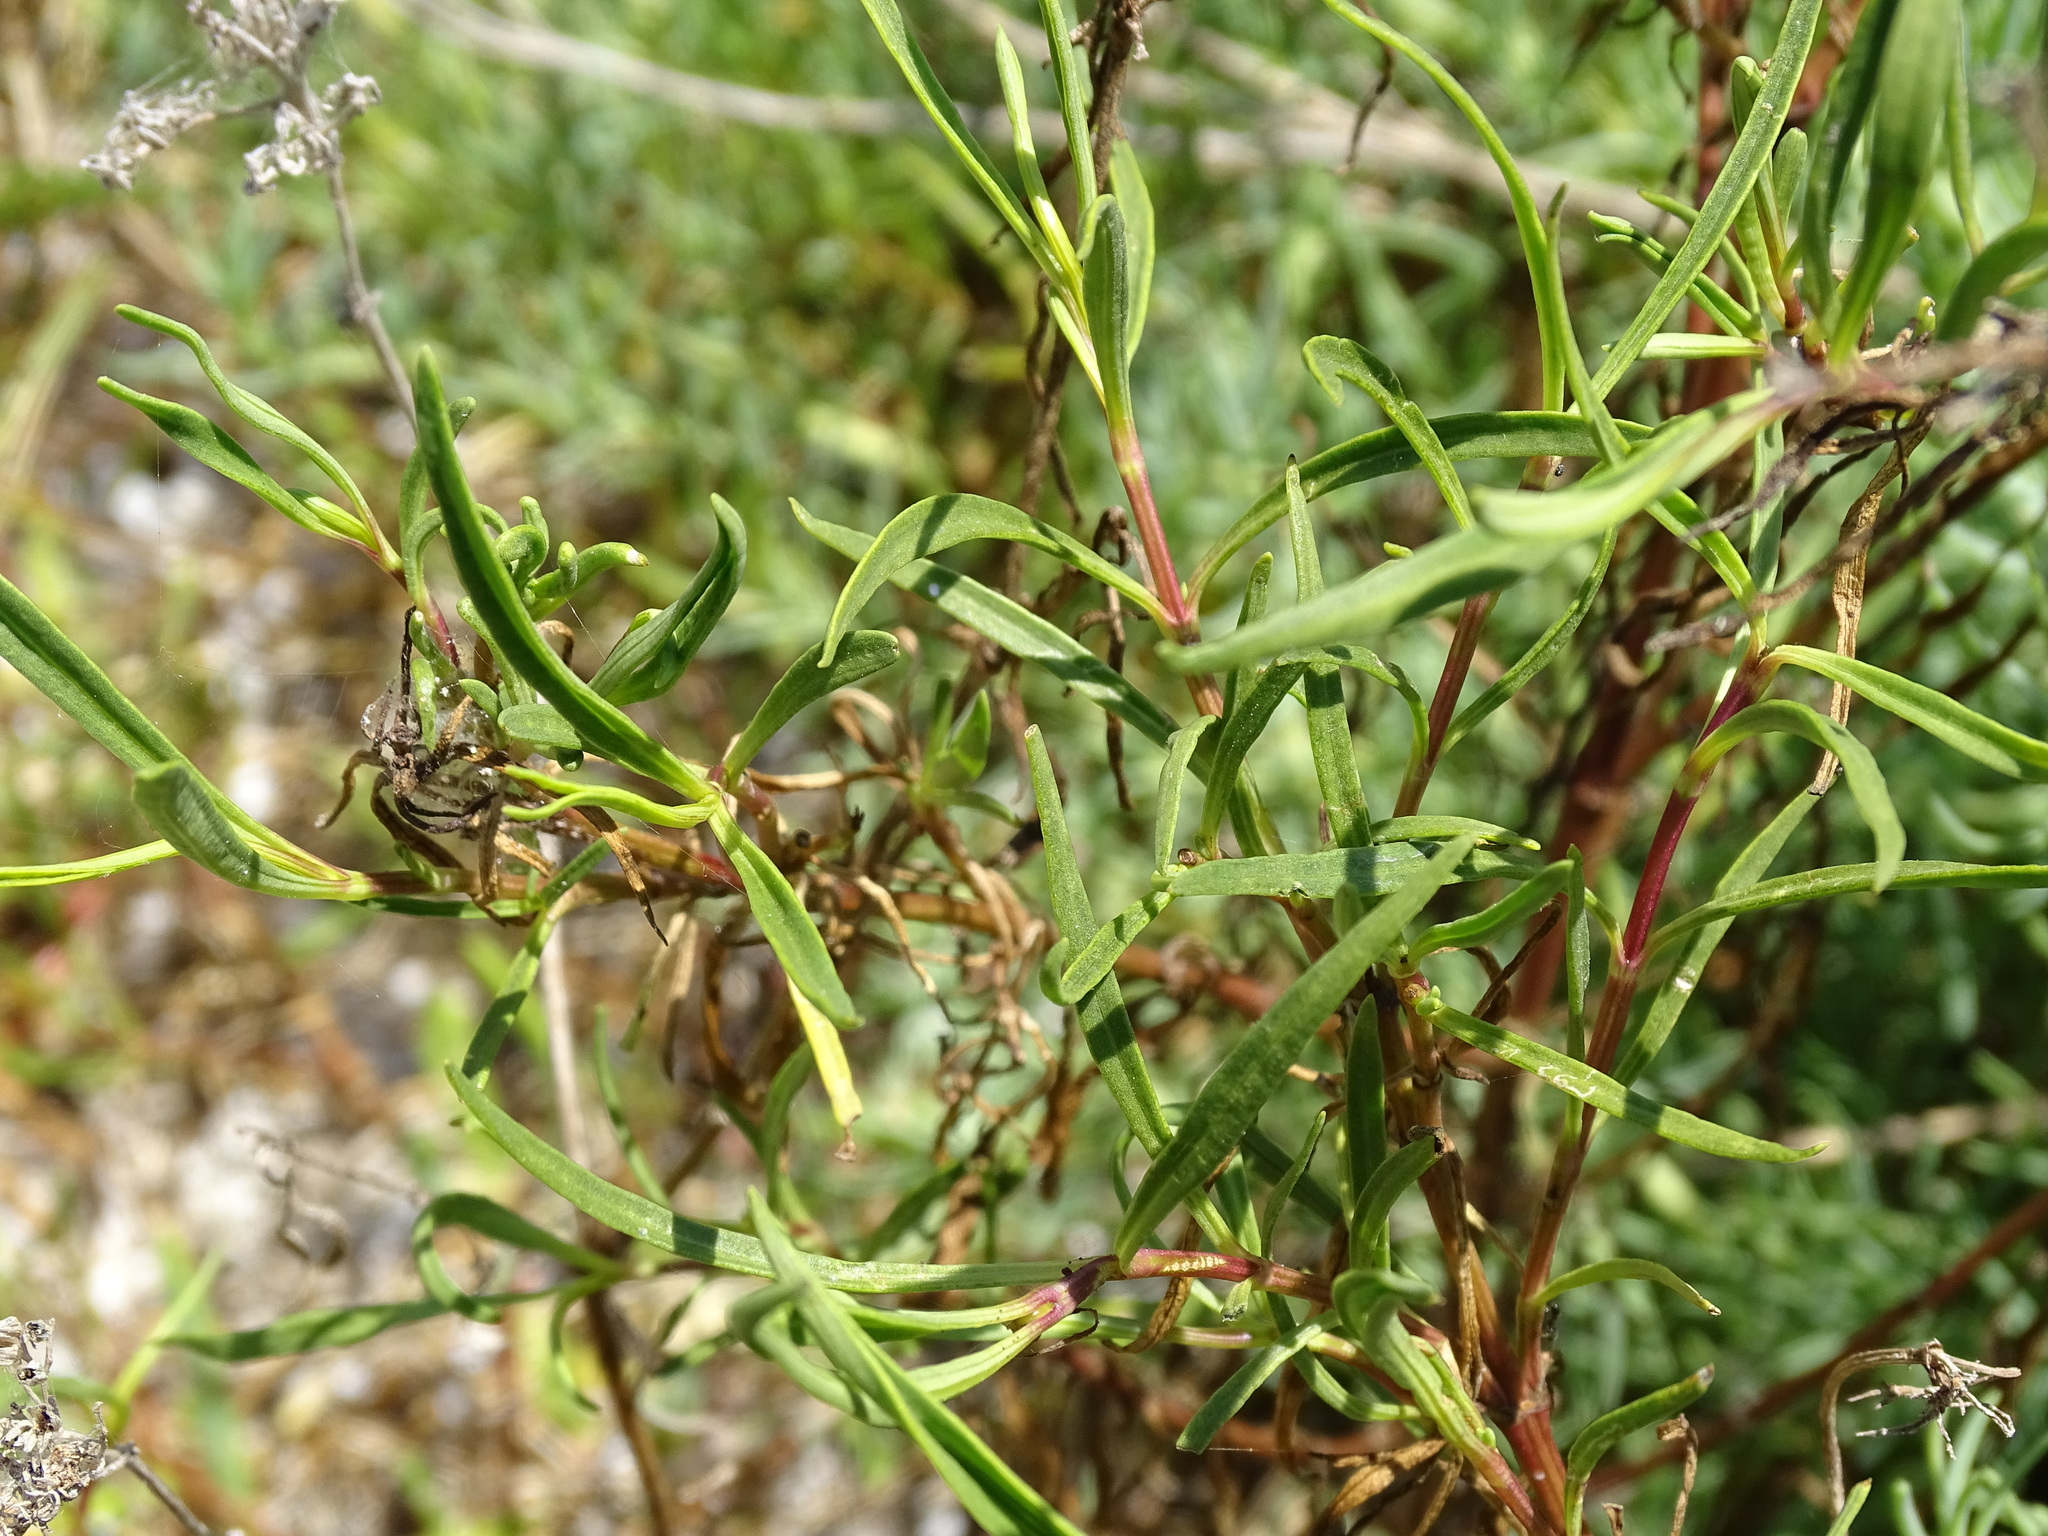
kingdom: Plantae
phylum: Tracheophyta
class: Magnoliopsida
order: Asterales
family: Asteraceae
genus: Flaveria
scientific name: Flaveria linearis
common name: Yellowtop
